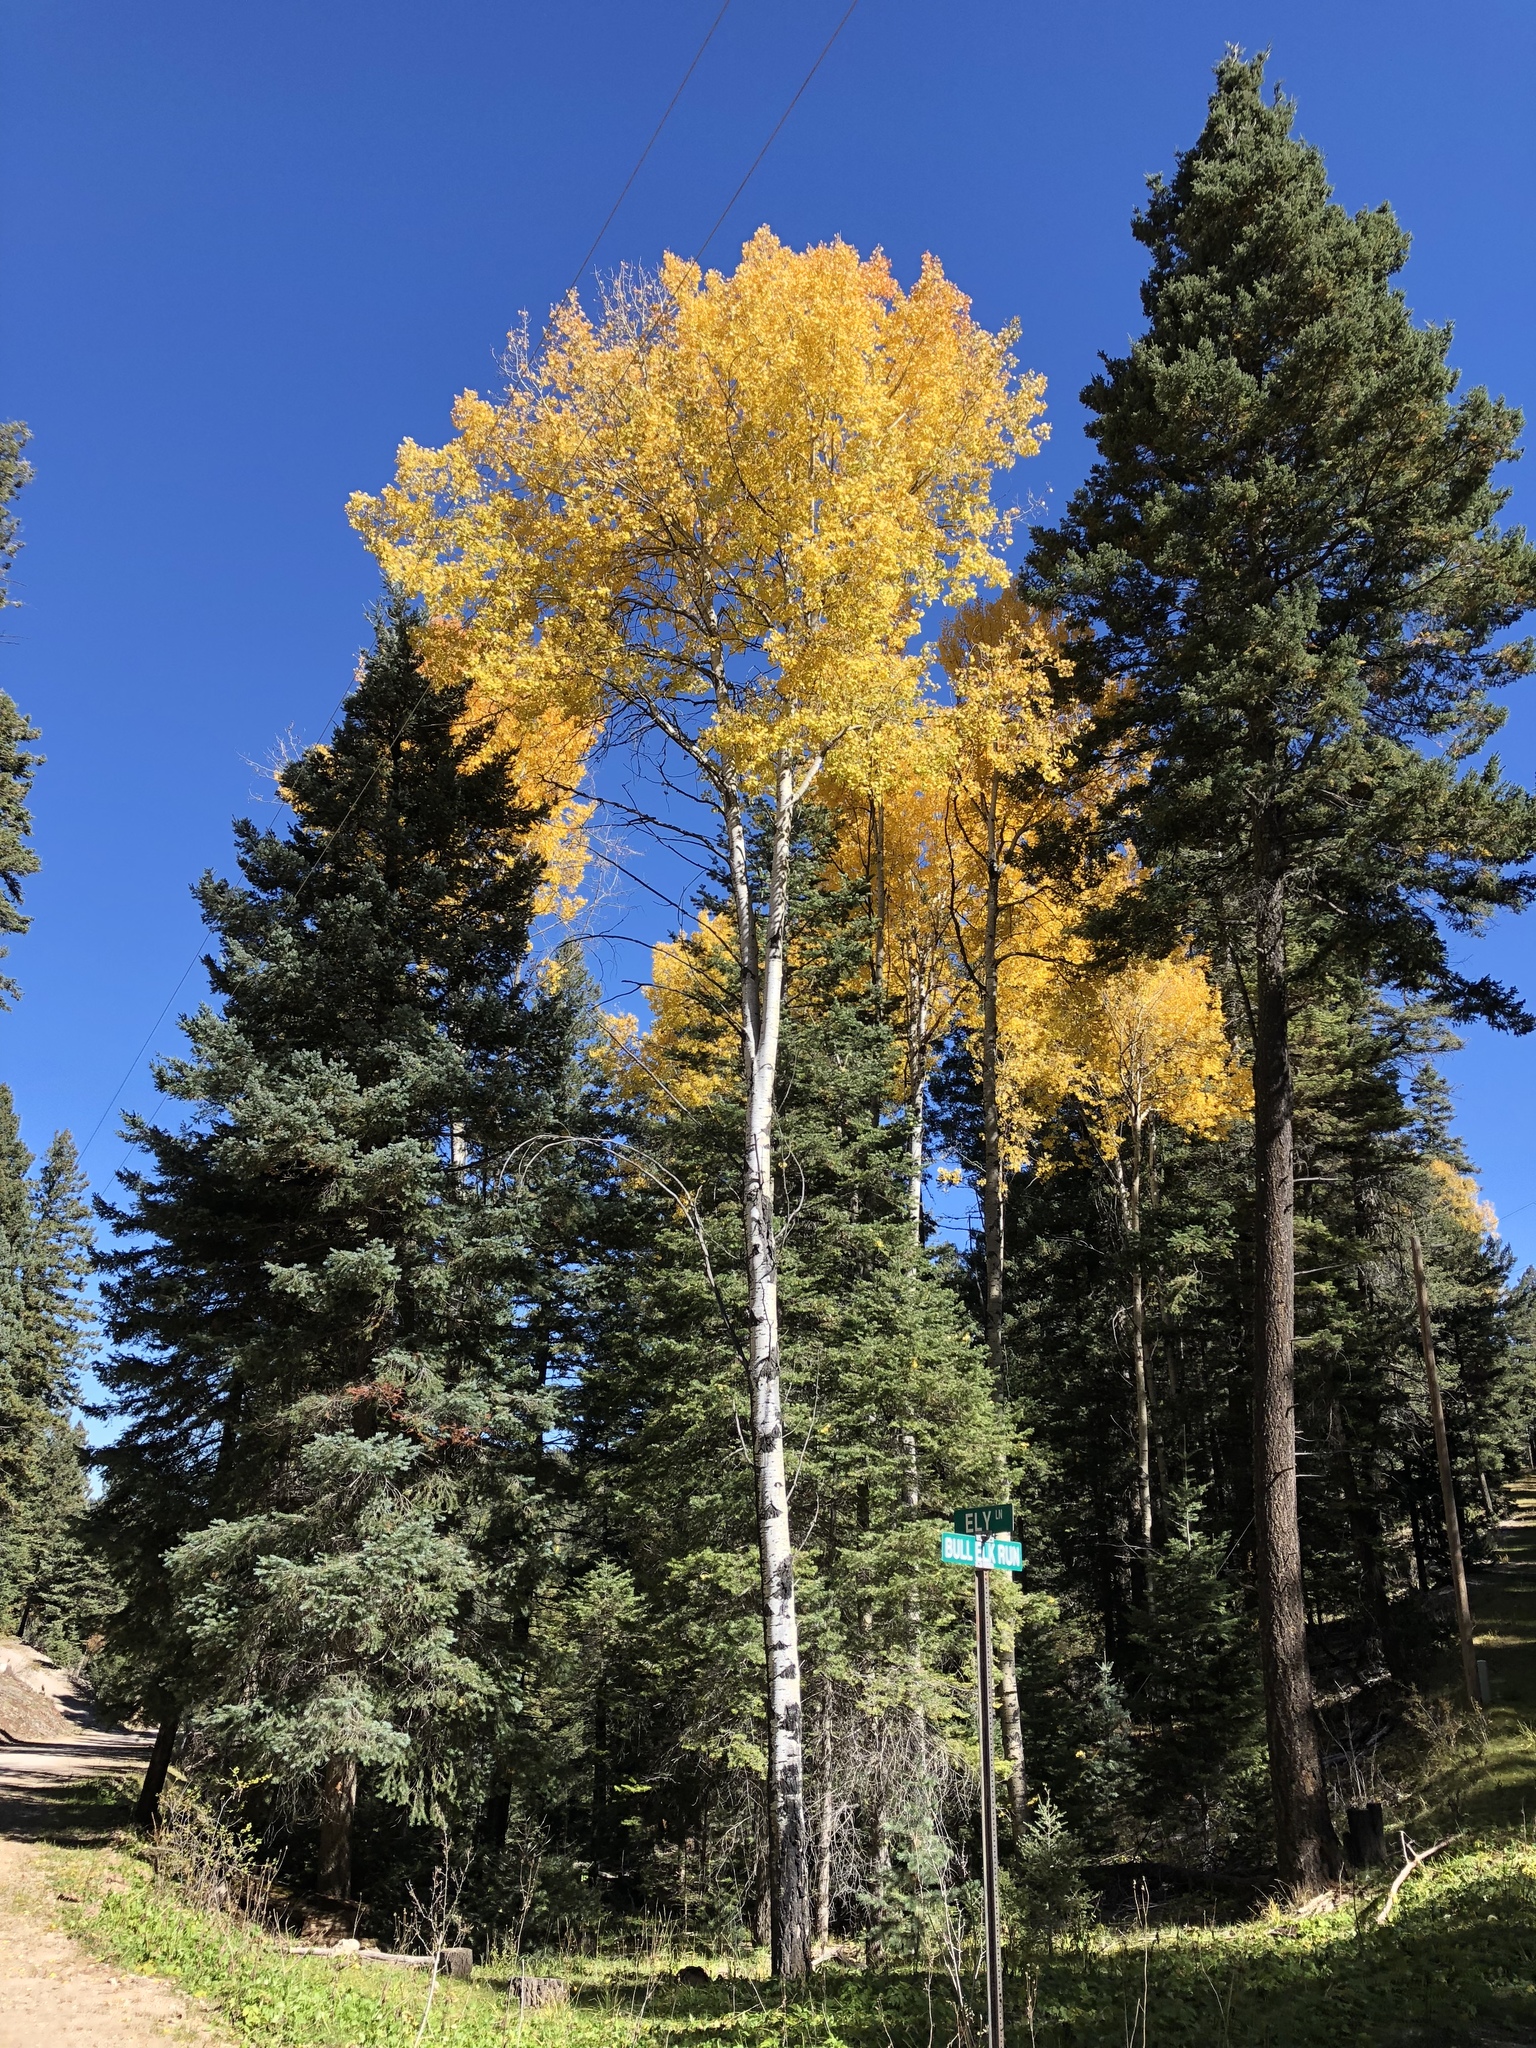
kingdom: Plantae
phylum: Tracheophyta
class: Magnoliopsida
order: Malpighiales
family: Salicaceae
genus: Populus
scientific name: Populus tremuloides
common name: Quaking aspen
